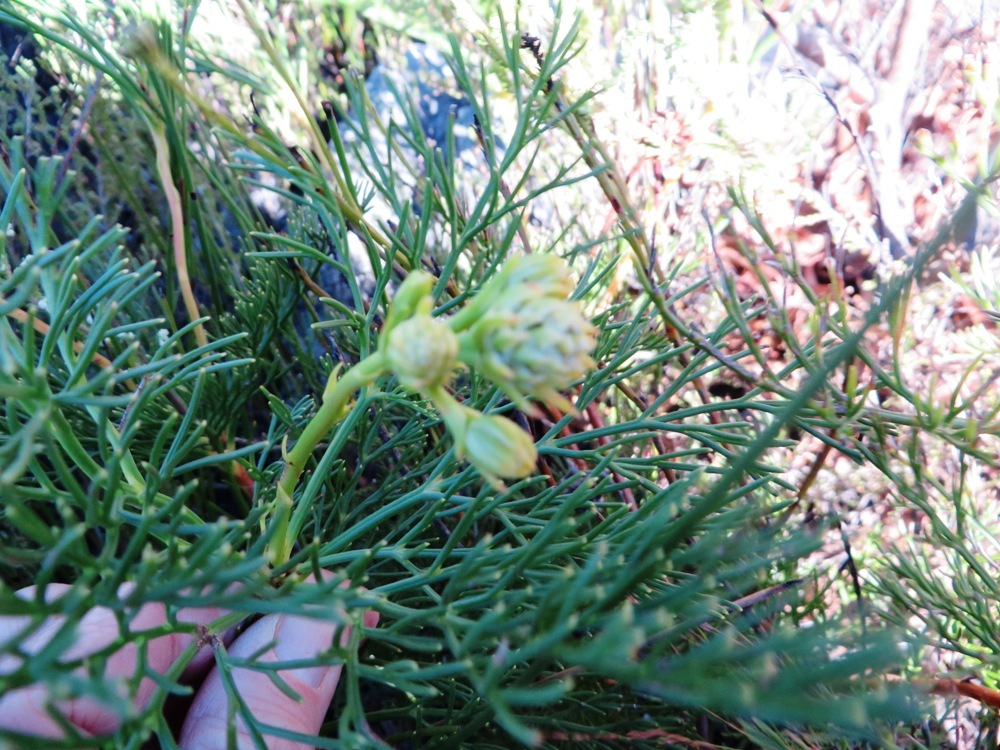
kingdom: Plantae
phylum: Tracheophyta
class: Magnoliopsida
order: Proteales
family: Proteaceae
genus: Serruria
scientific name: Serruria elongata
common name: Long-stalk spiderhead
